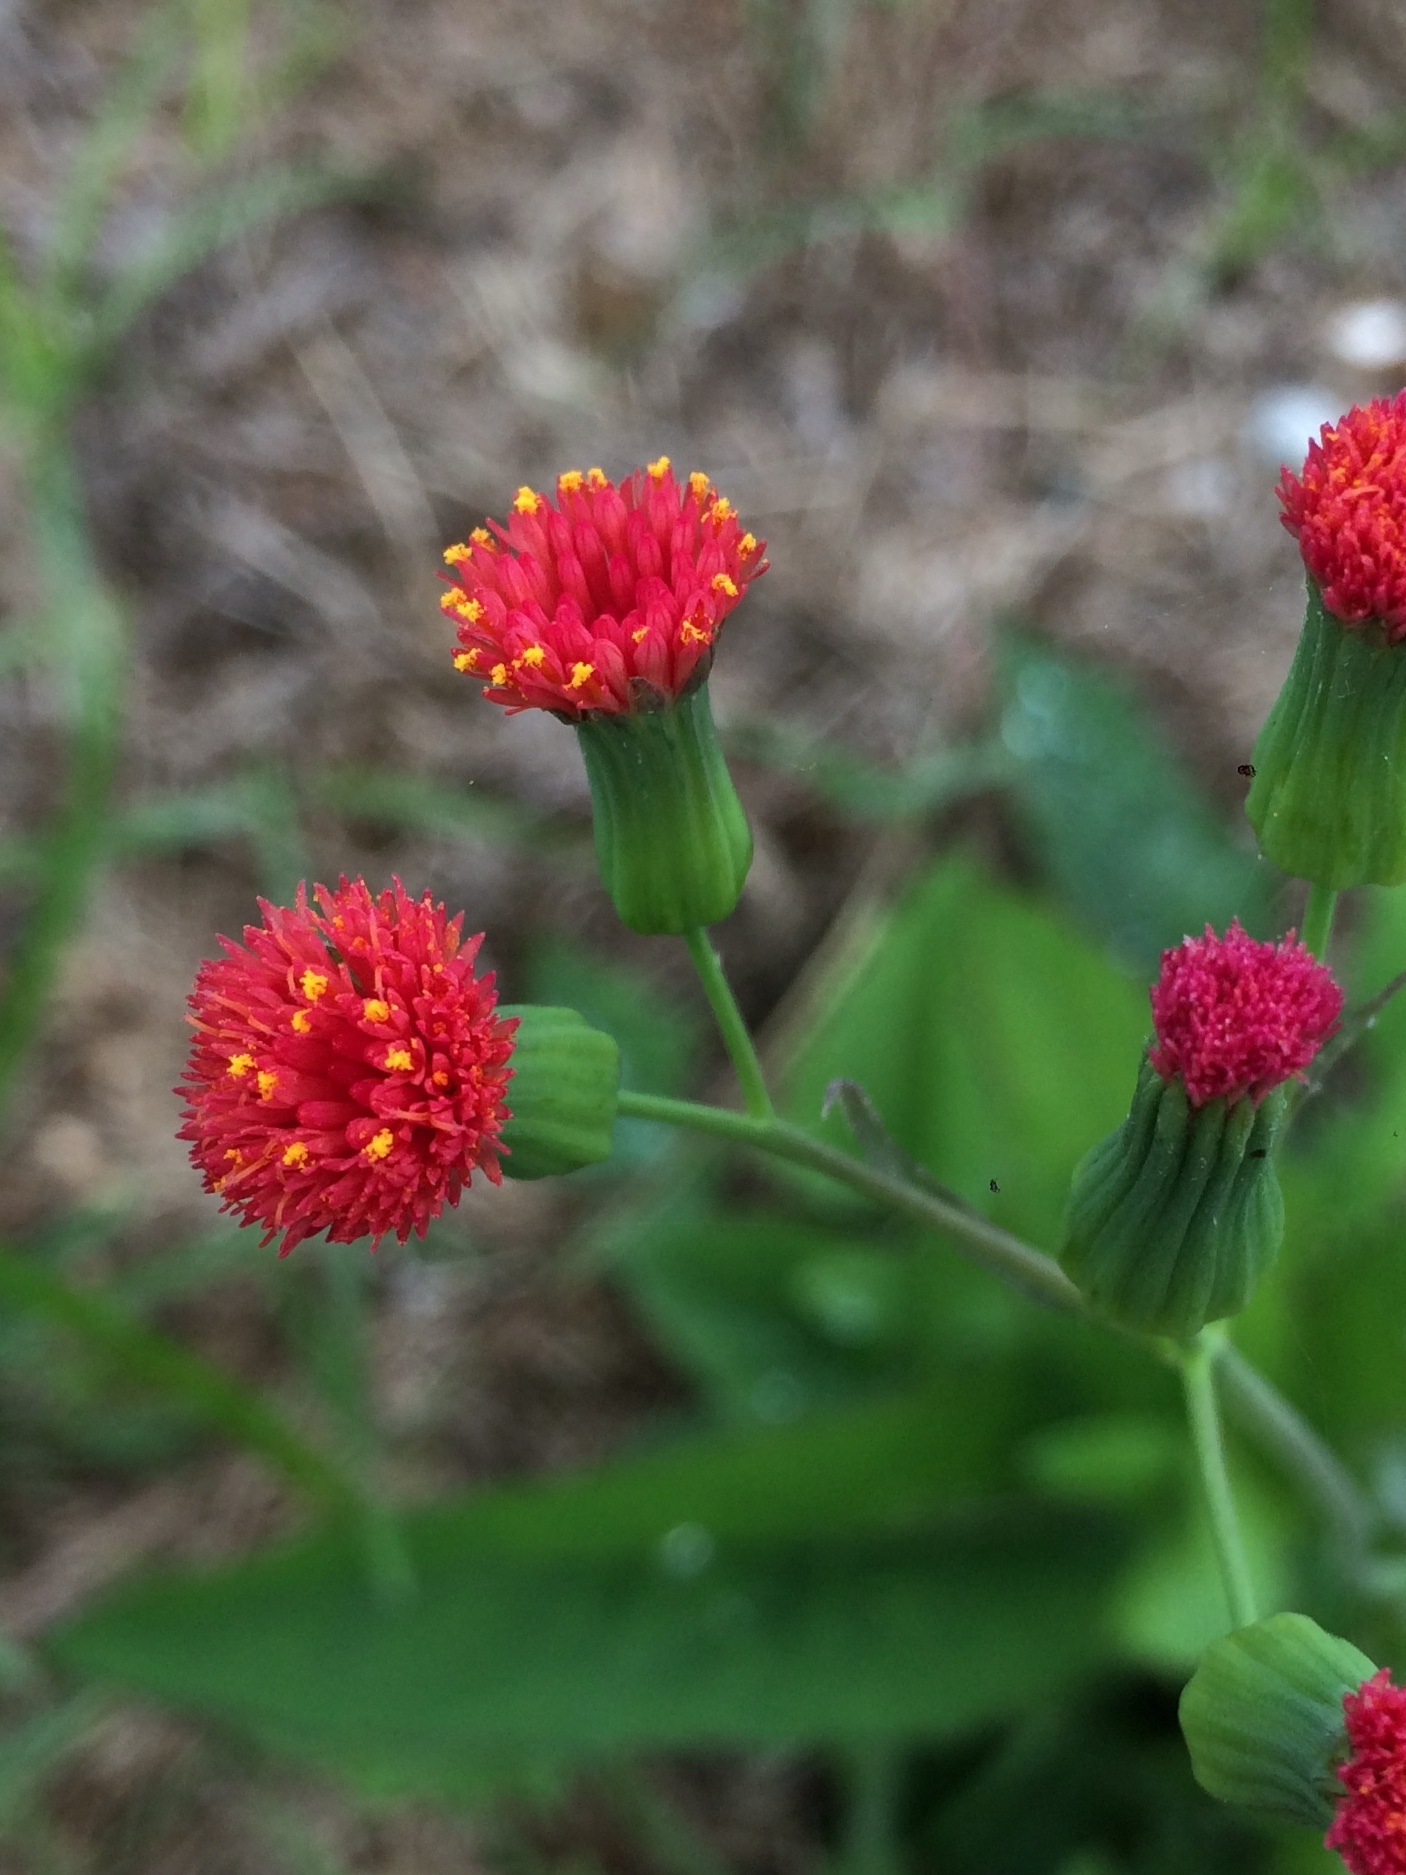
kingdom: Plantae
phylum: Tracheophyta
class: Magnoliopsida
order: Asterales
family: Asteraceae
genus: Emilia
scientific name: Emilia fosbergii
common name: Florida tasselflower
